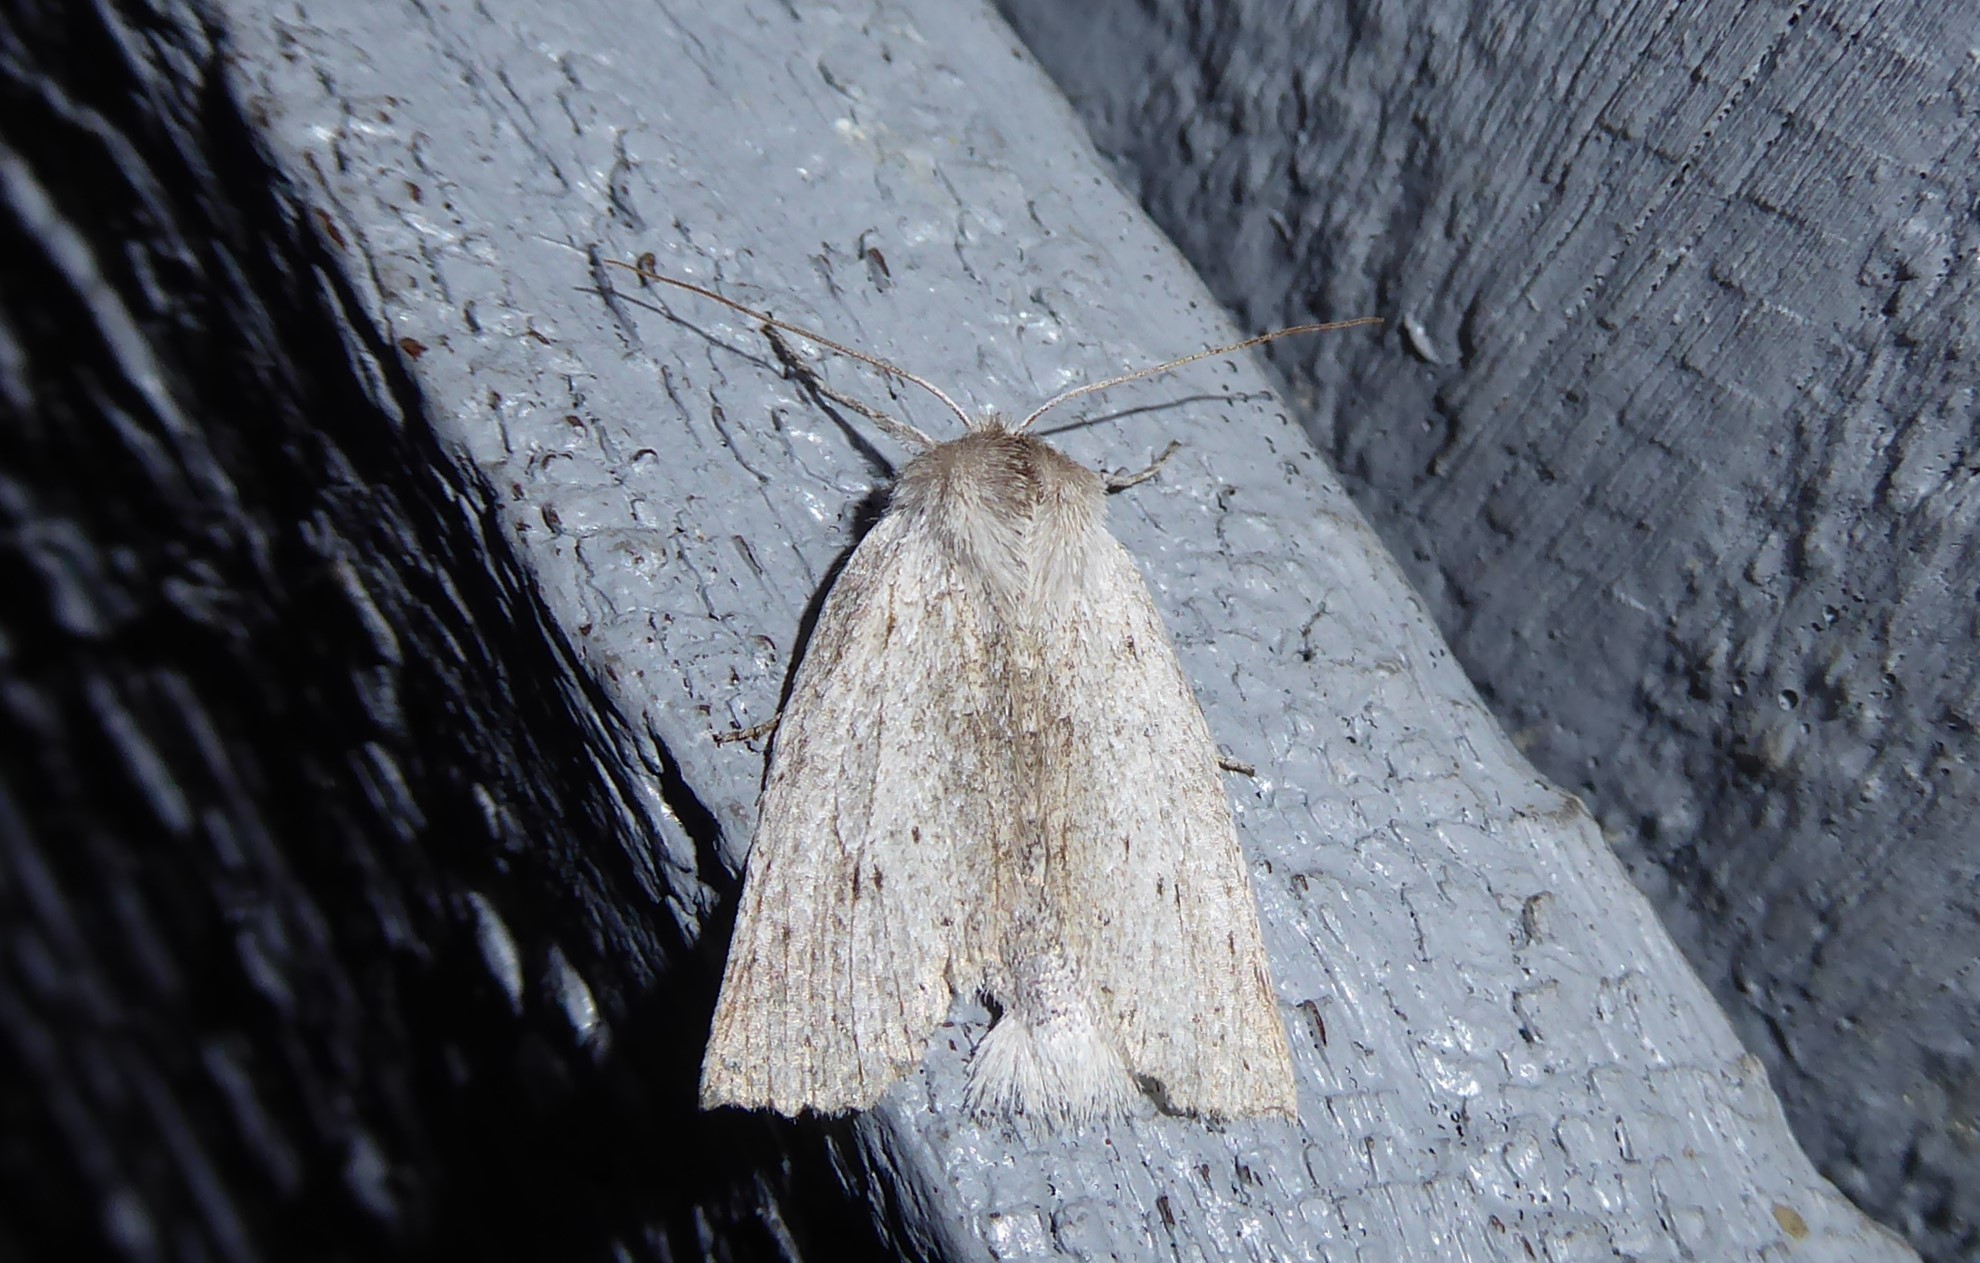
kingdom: Animalia
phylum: Arthropoda
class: Insecta
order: Lepidoptera
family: Geometridae
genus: Declana
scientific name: Declana leptomera
